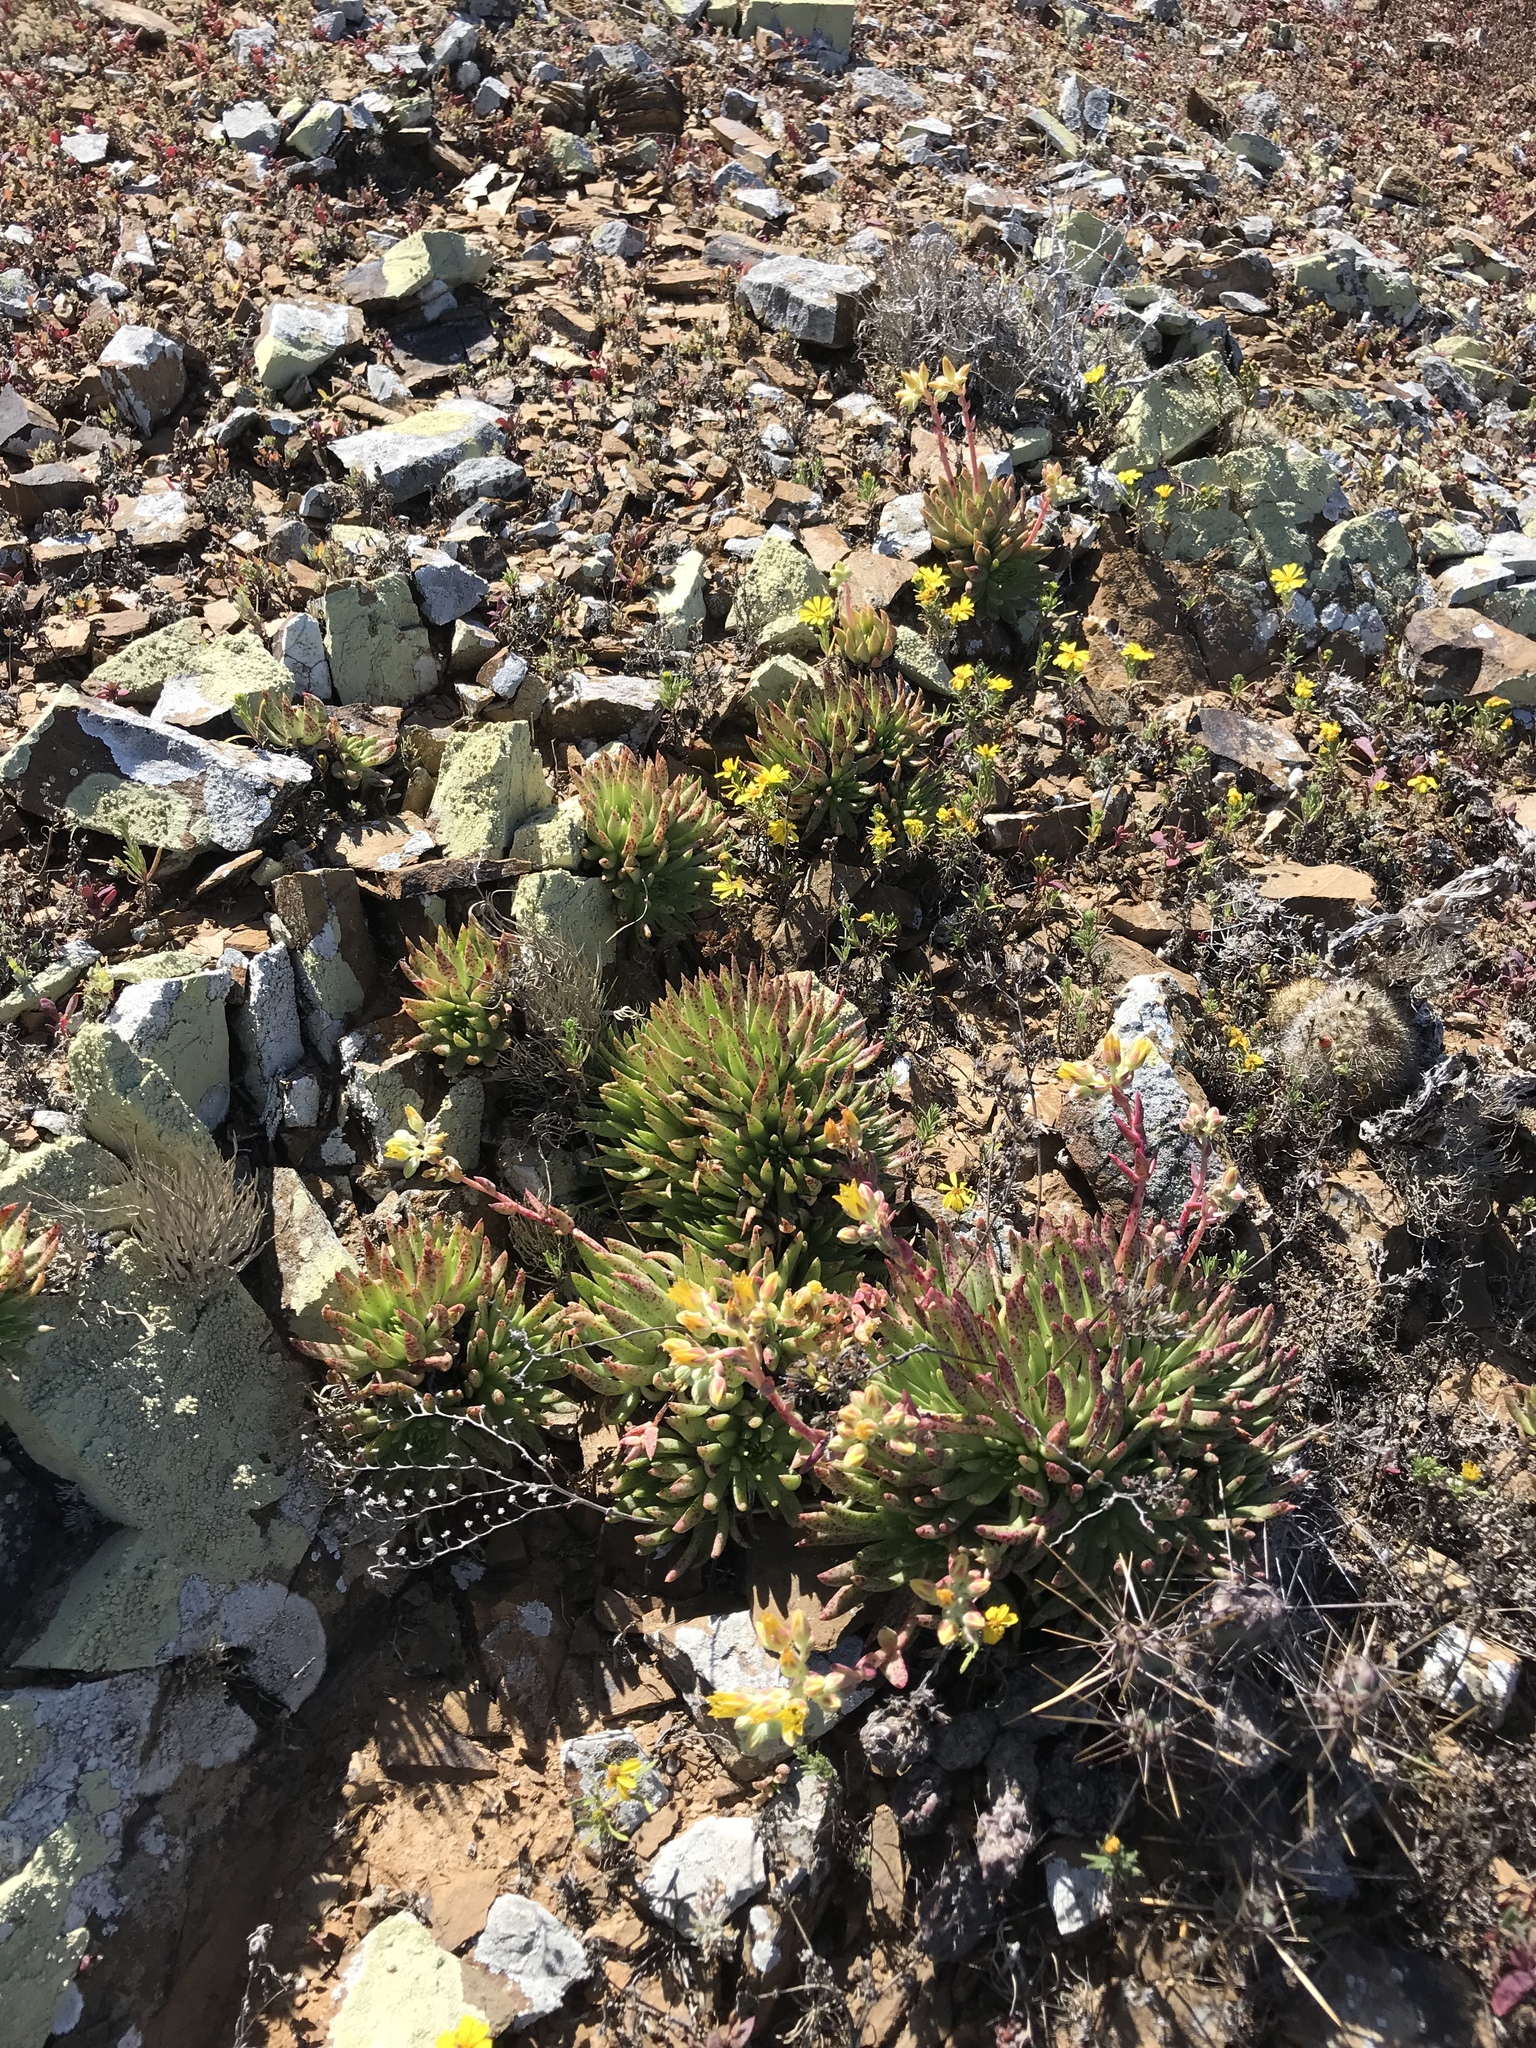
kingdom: Plantae
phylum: Tracheophyta
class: Magnoliopsida
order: Saxifragales
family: Crassulaceae
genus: Dudleya
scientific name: Dudleya linearis
